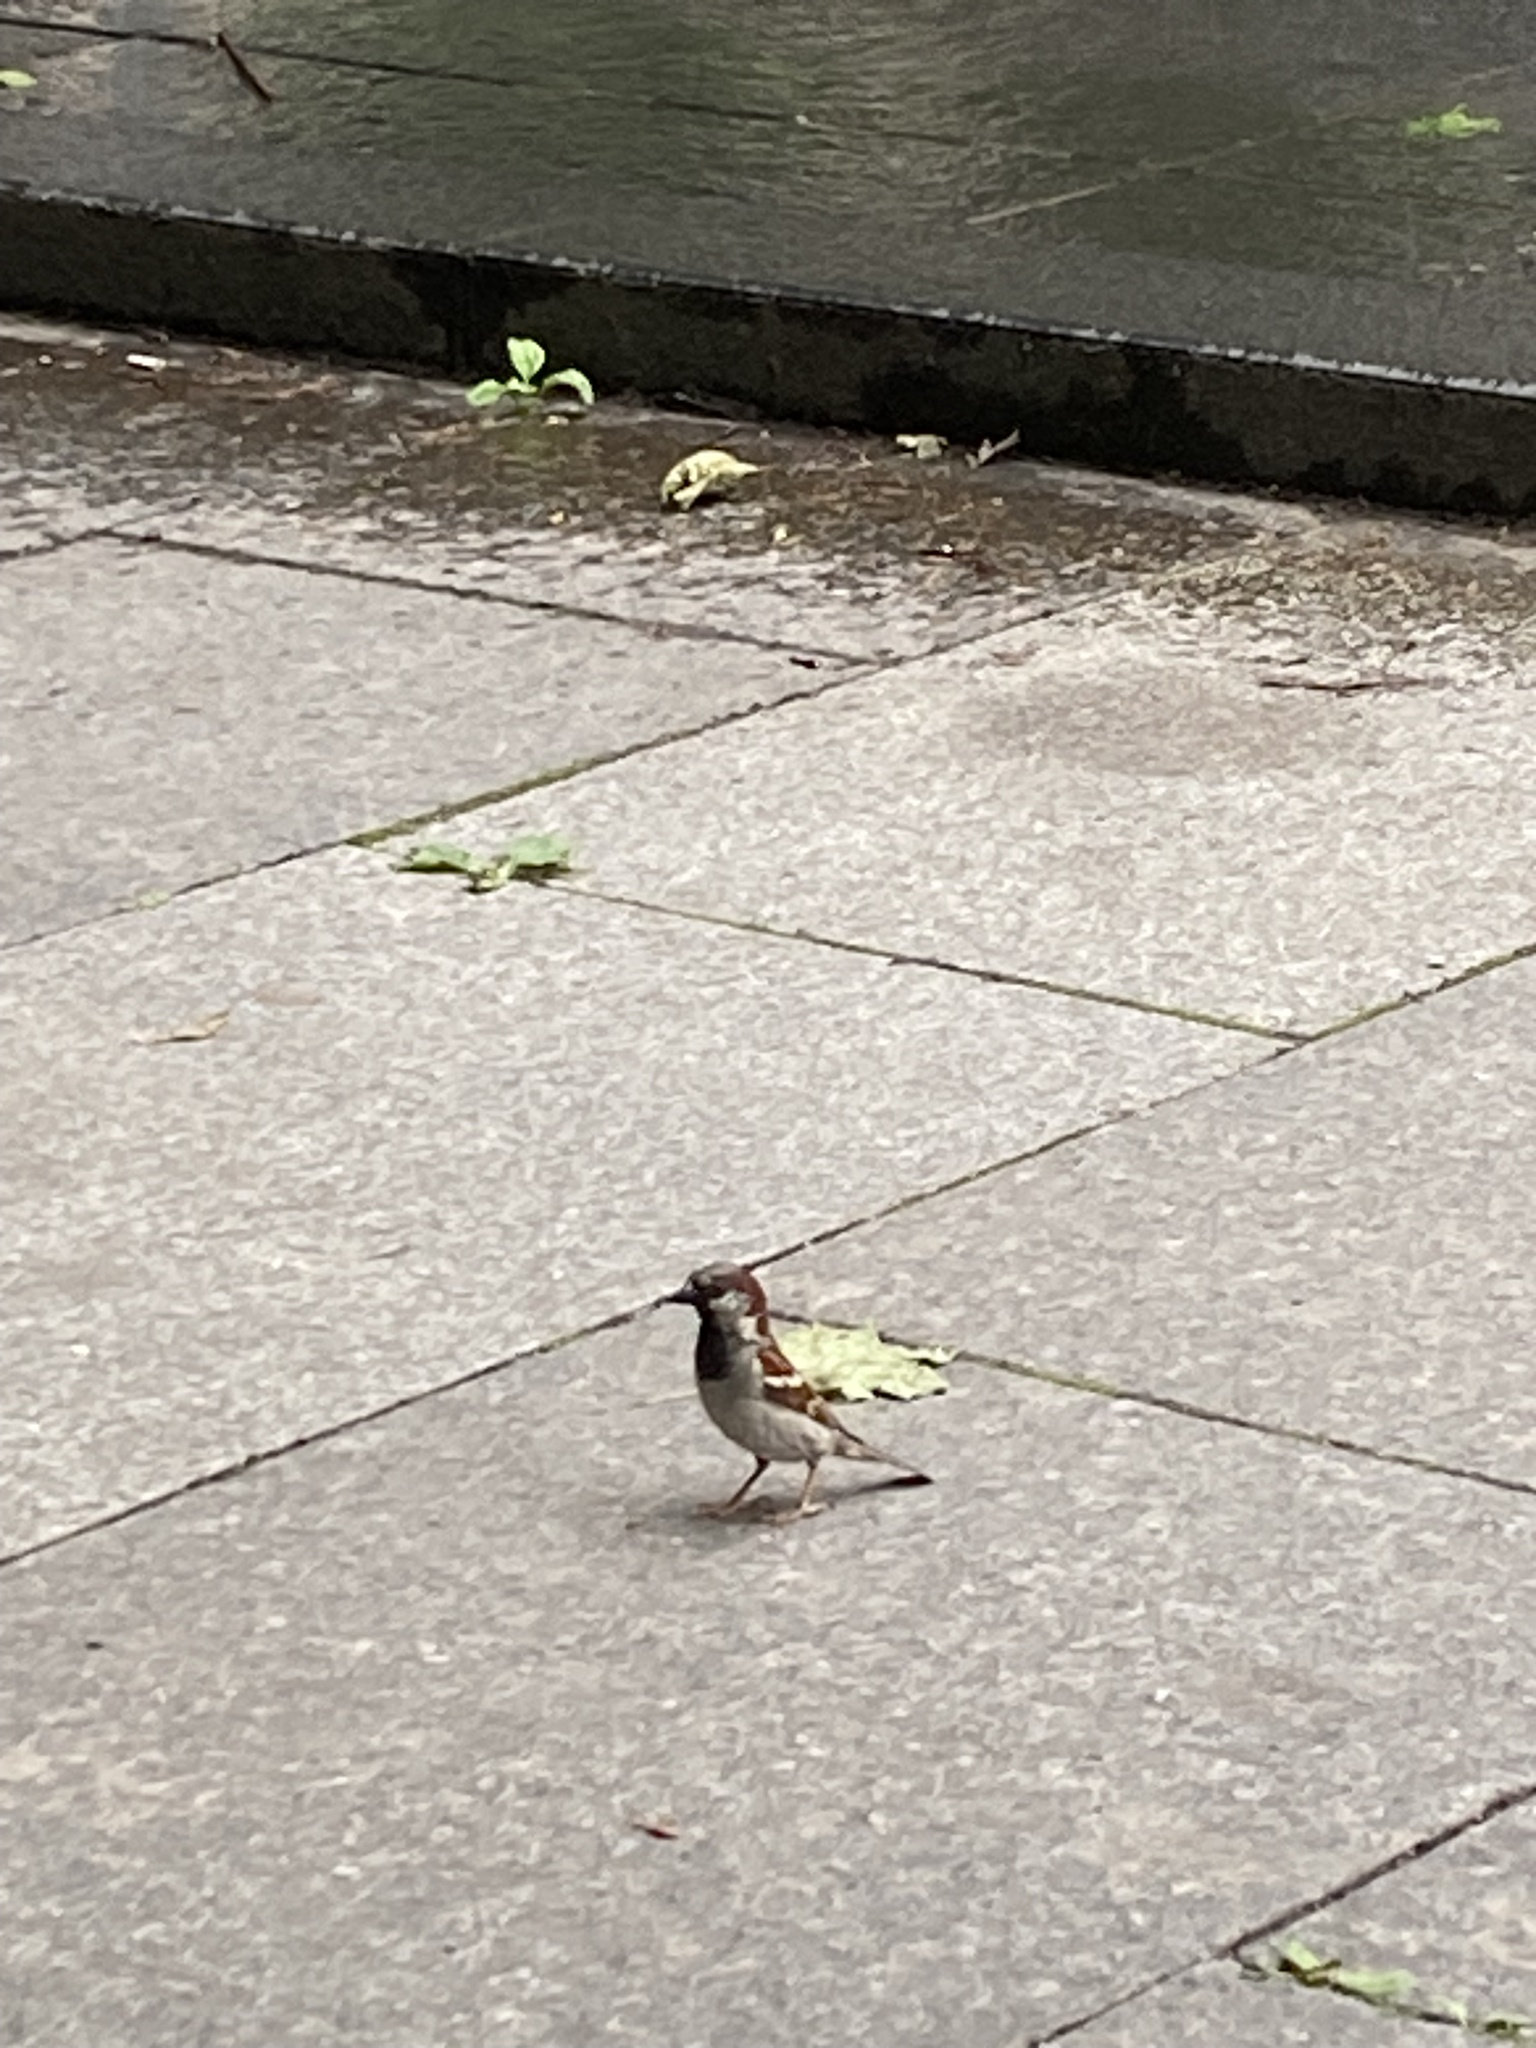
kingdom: Animalia
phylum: Chordata
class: Aves
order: Passeriformes
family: Passeridae
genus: Passer
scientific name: Passer domesticus
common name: House sparrow
